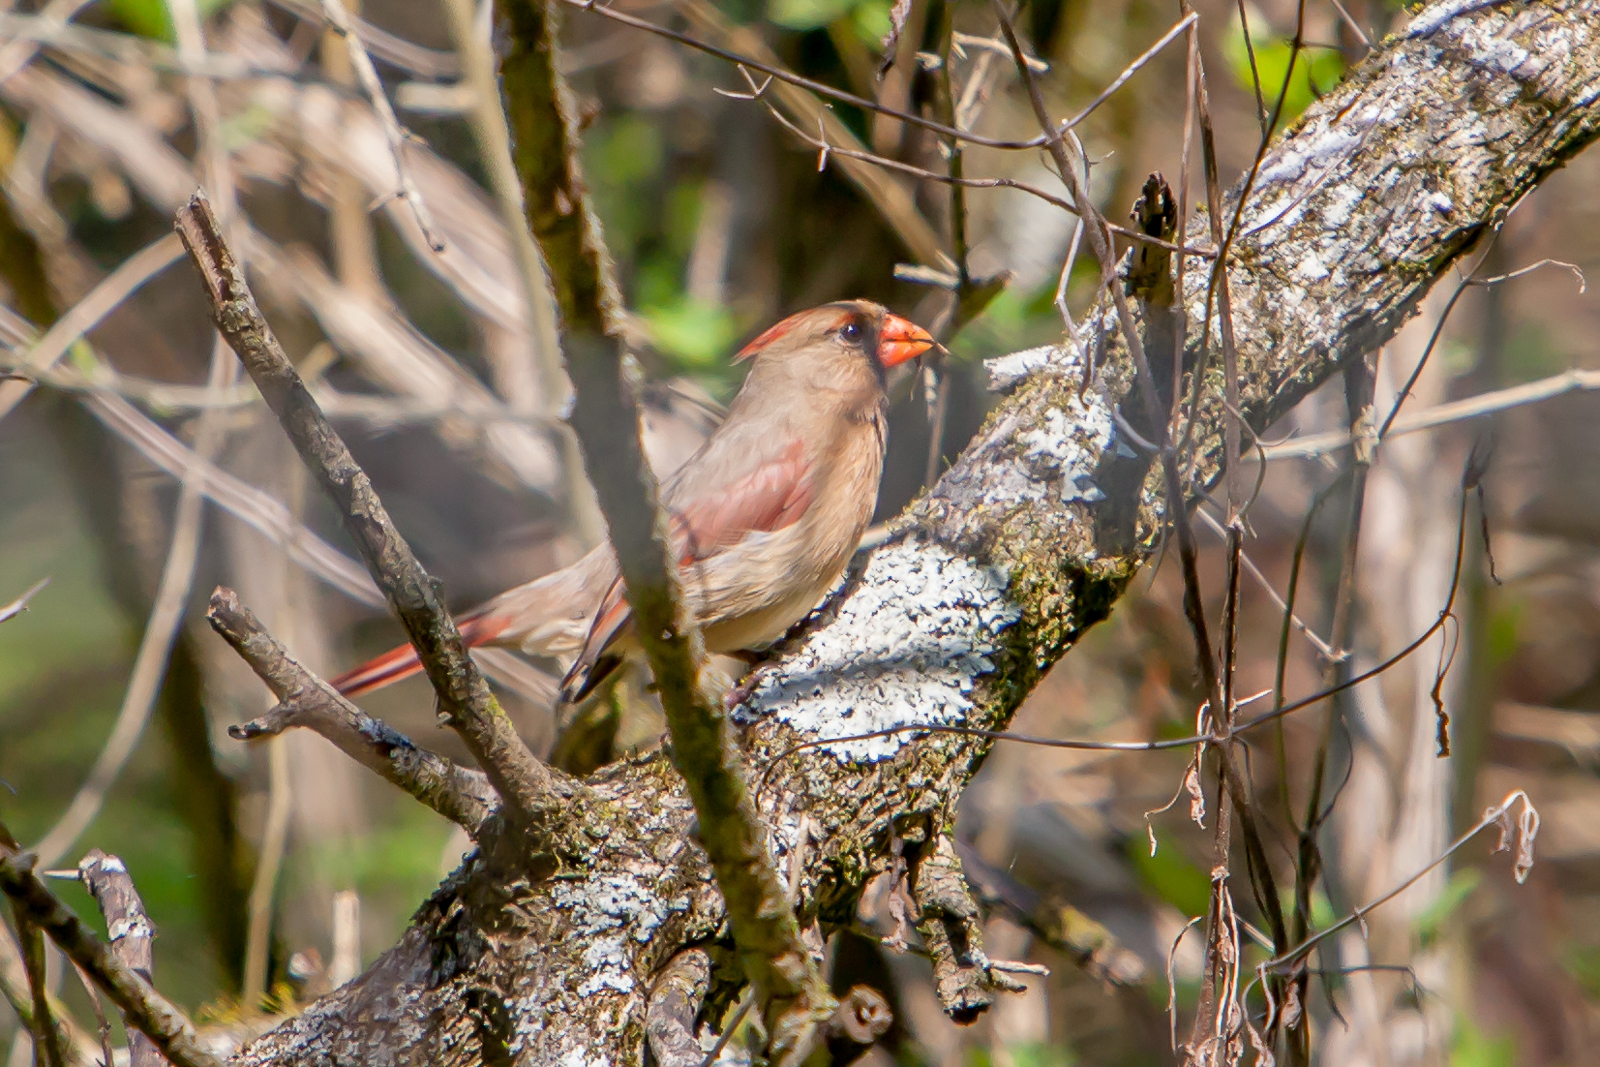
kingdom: Animalia
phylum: Chordata
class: Aves
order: Passeriformes
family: Cardinalidae
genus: Cardinalis
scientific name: Cardinalis cardinalis
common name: Northern cardinal
